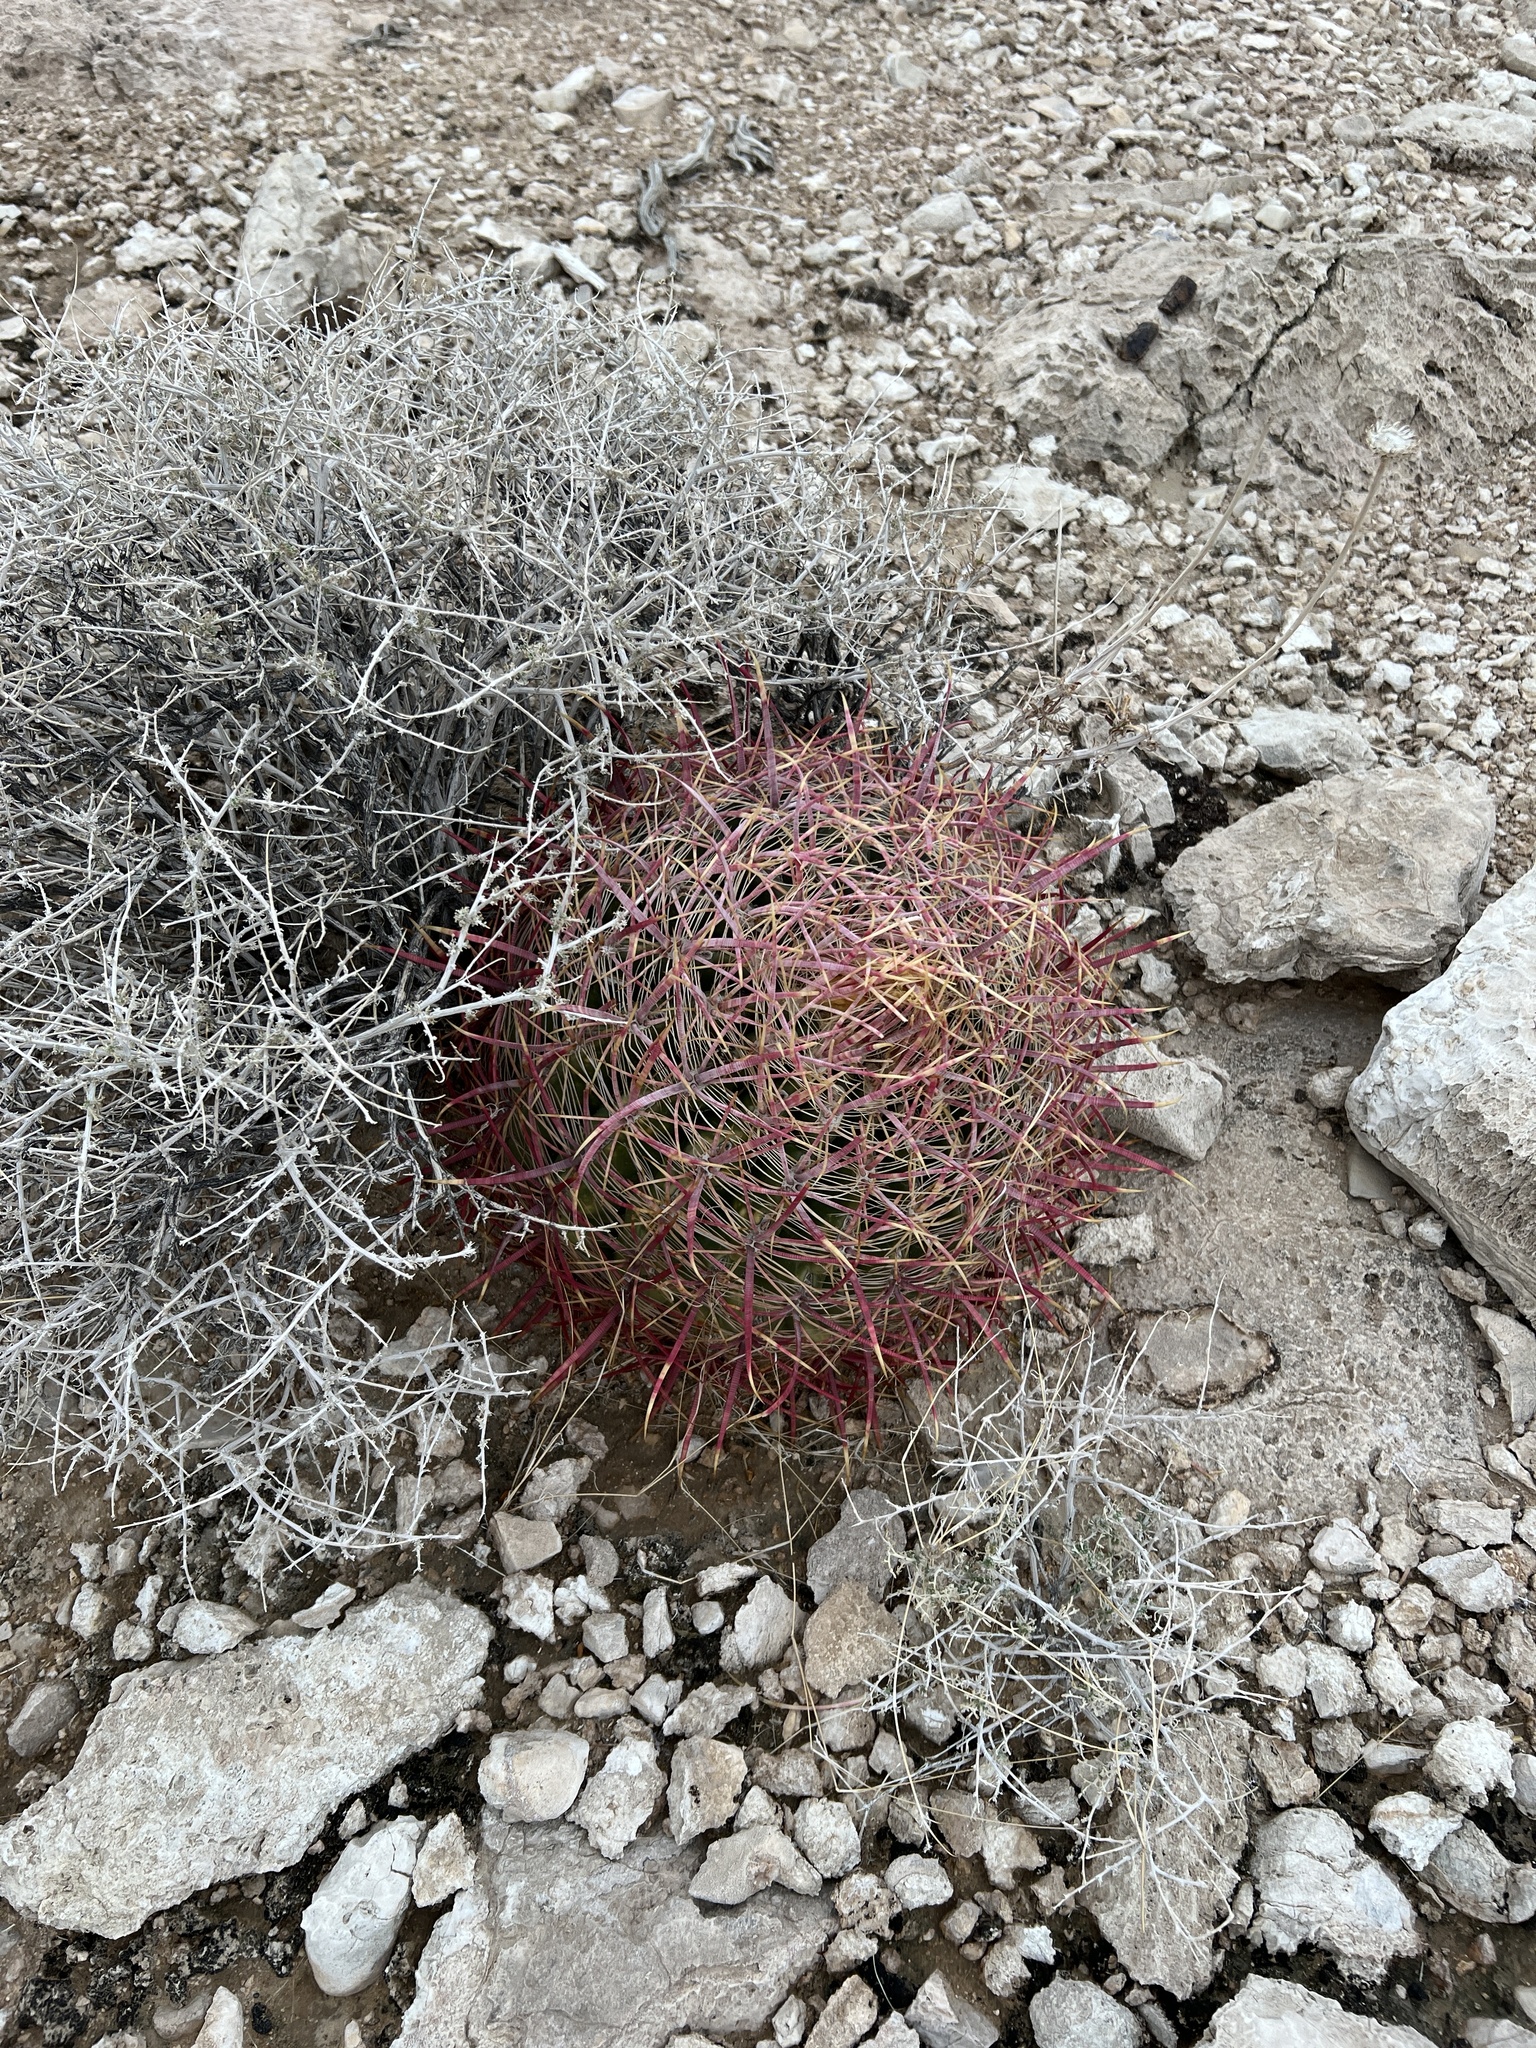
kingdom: Plantae
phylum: Tracheophyta
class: Magnoliopsida
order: Caryophyllales
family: Cactaceae
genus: Ferocactus
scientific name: Ferocactus cylindraceus
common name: California barrel cactus
